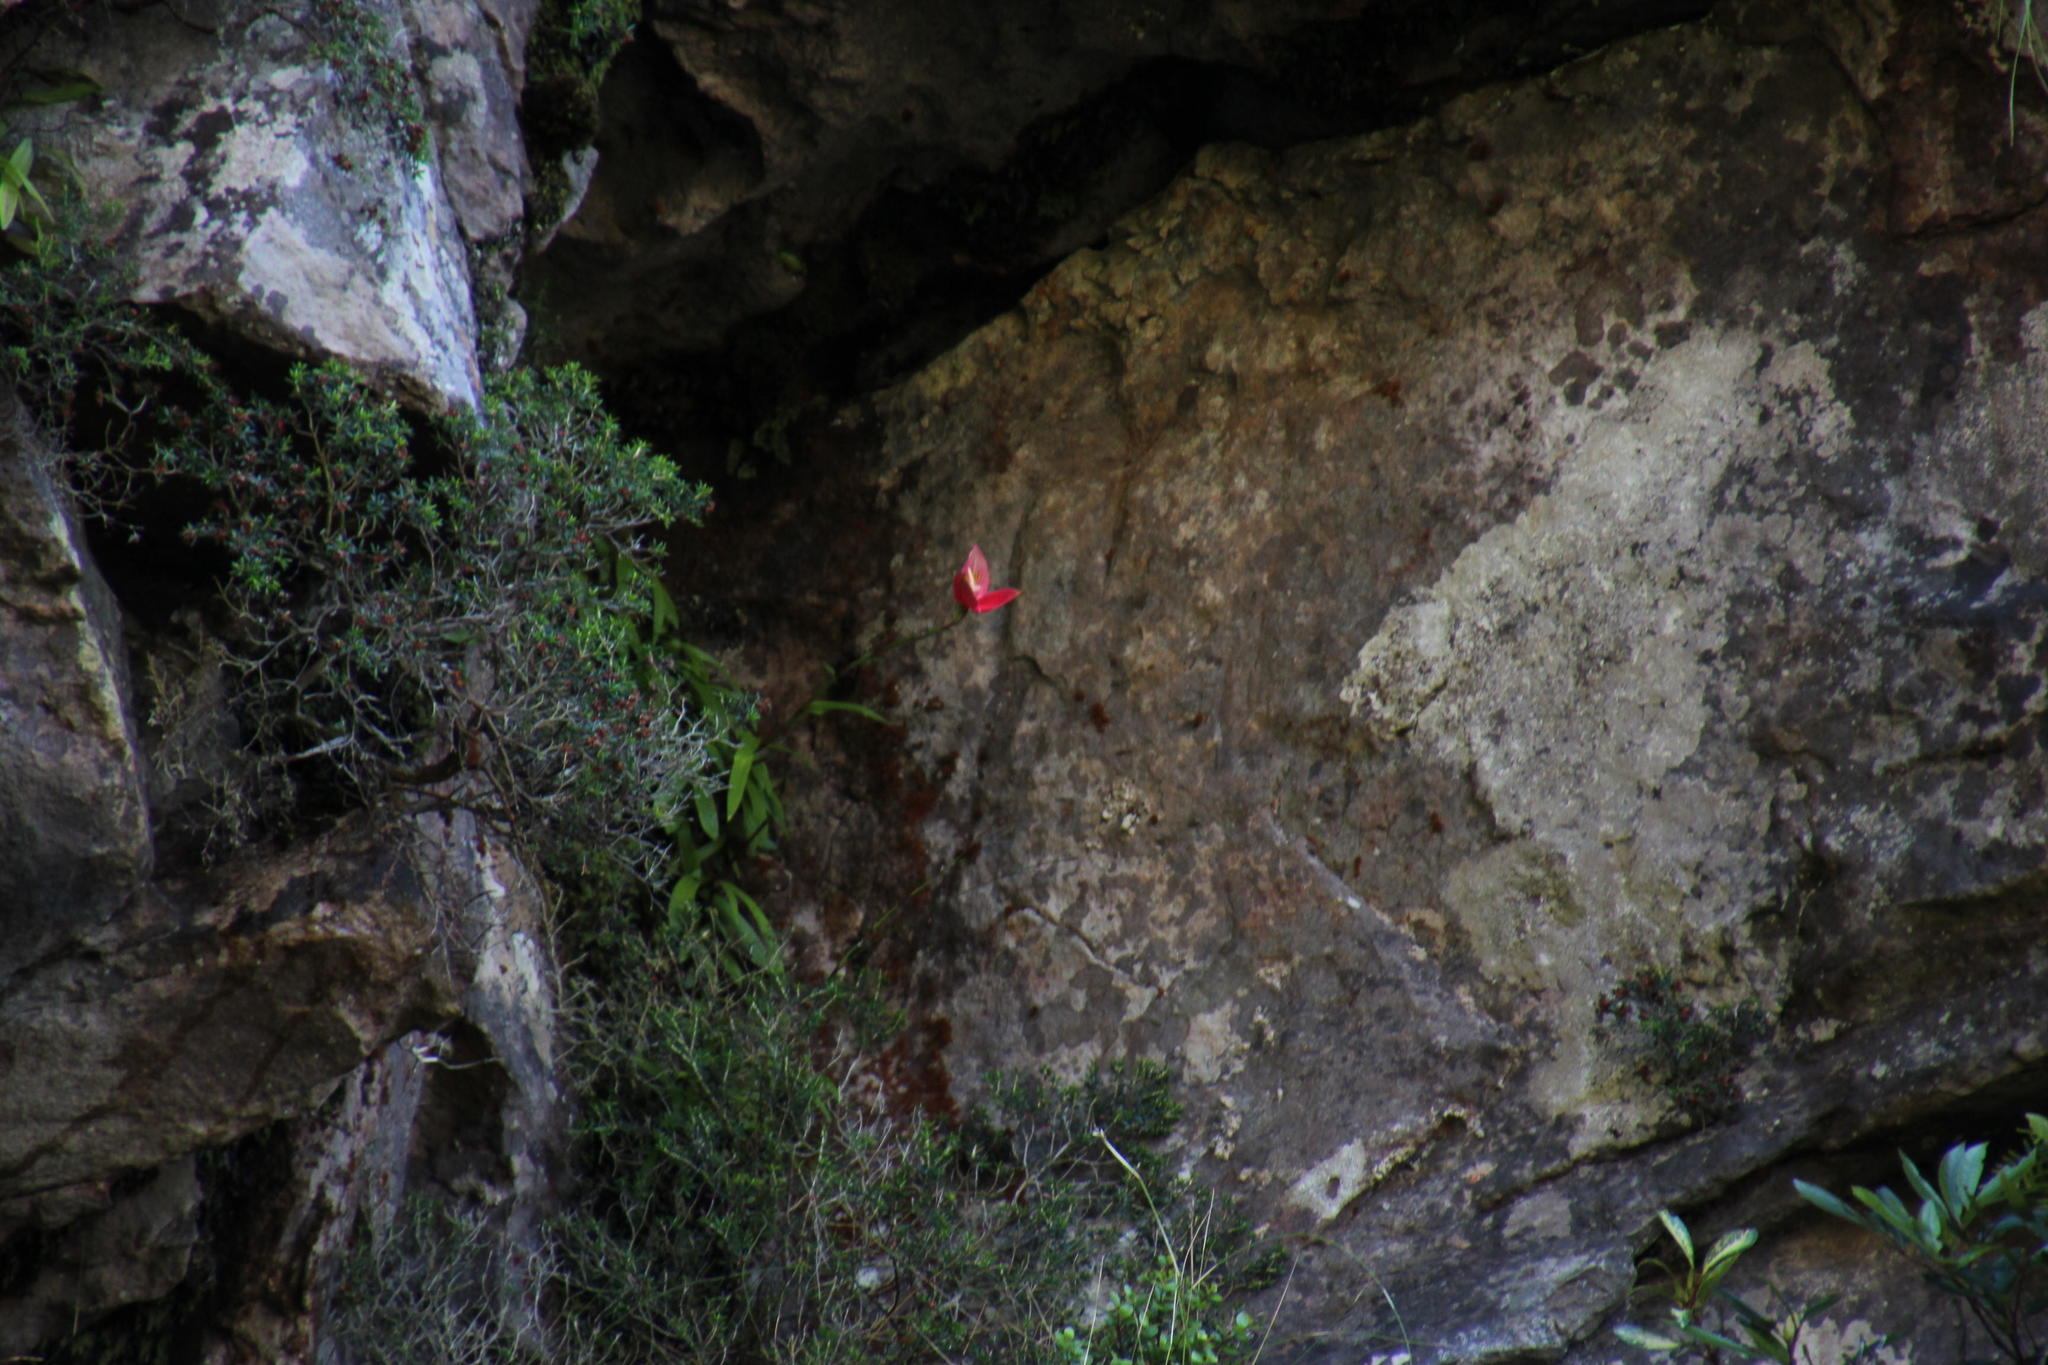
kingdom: Plantae
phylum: Tracheophyta
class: Liliopsida
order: Asparagales
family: Orchidaceae
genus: Disa
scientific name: Disa uniflora
